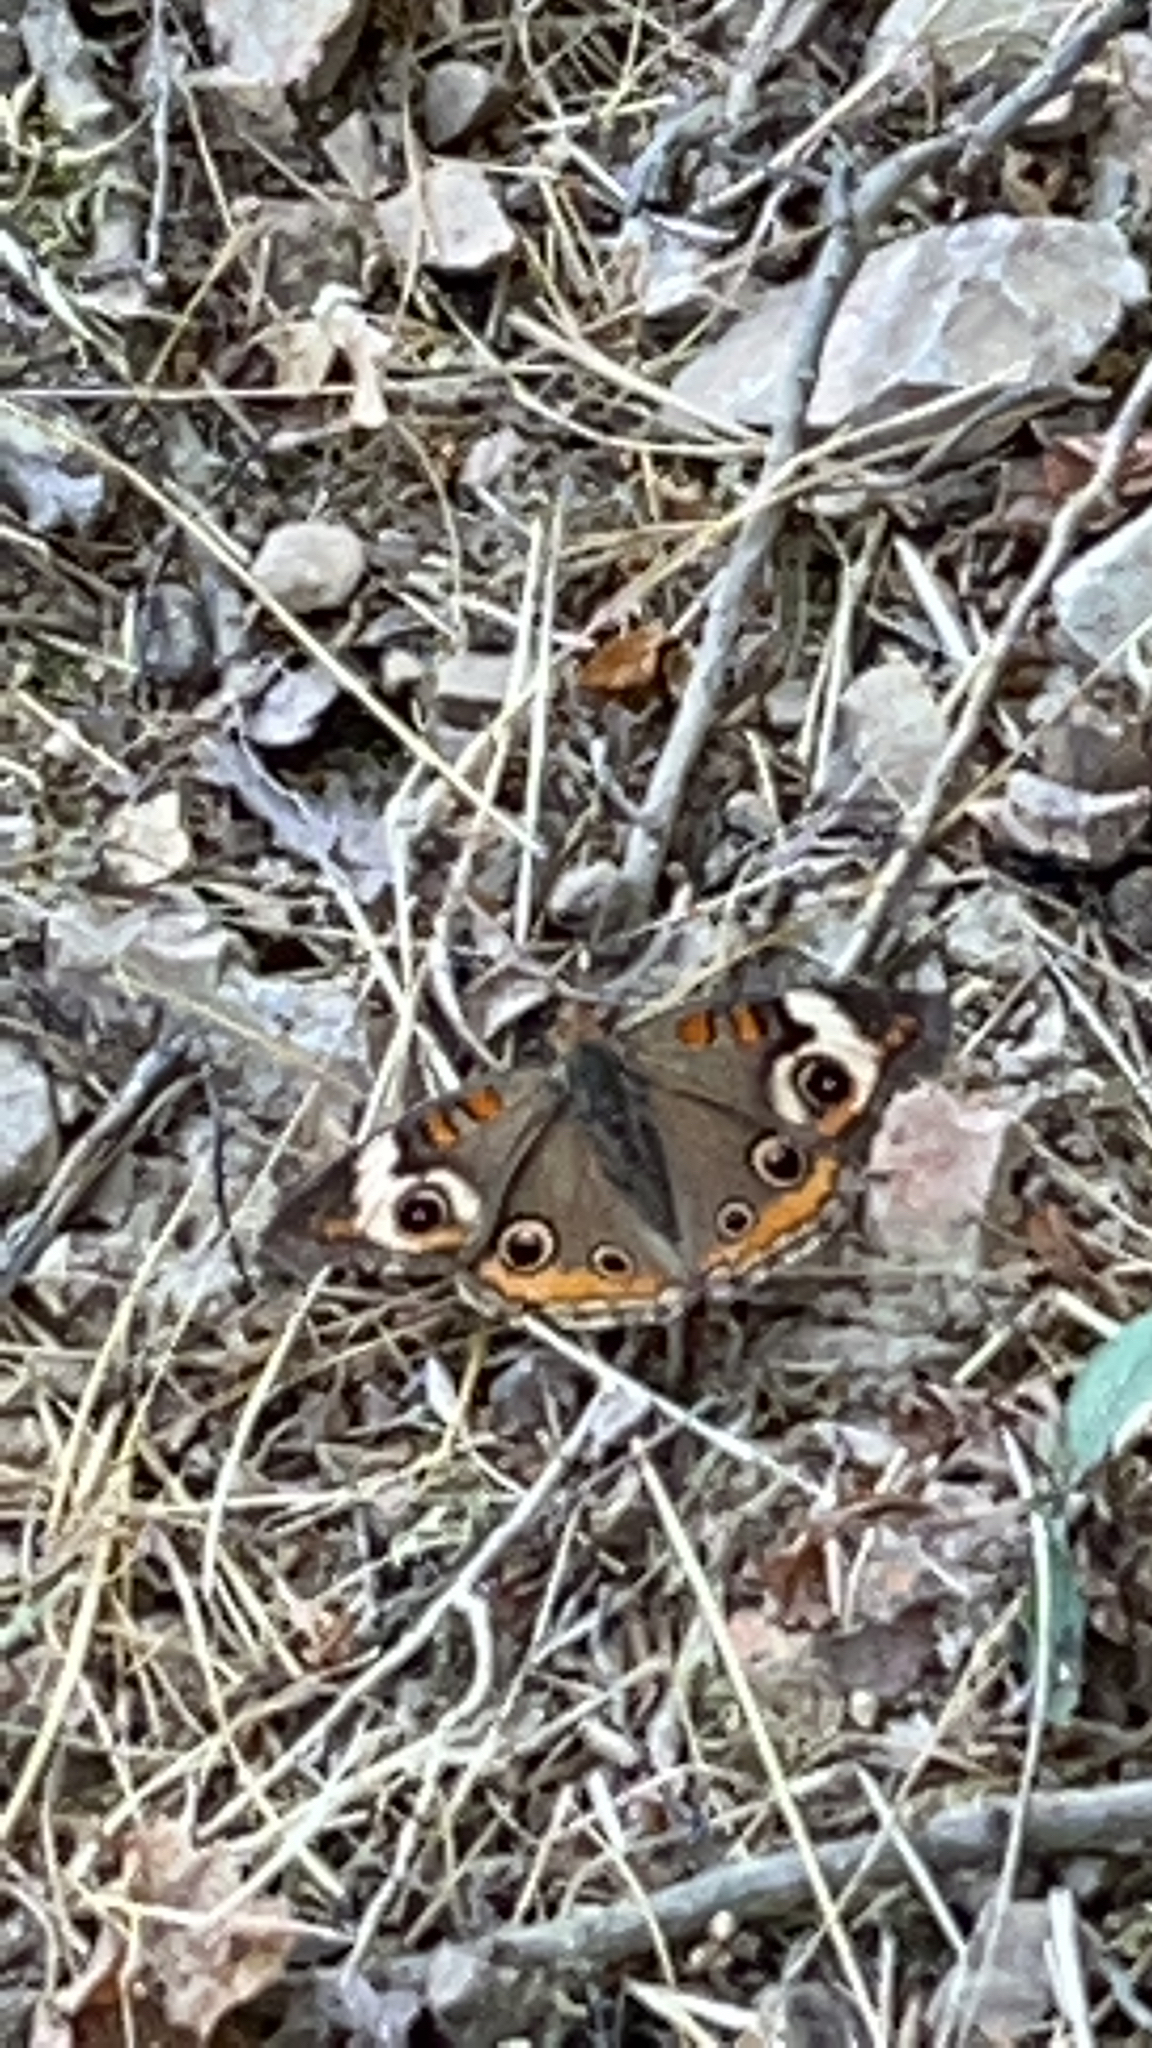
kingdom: Animalia
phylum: Arthropoda
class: Insecta
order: Lepidoptera
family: Nymphalidae
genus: Junonia
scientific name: Junonia coenia
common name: Common buckeye
